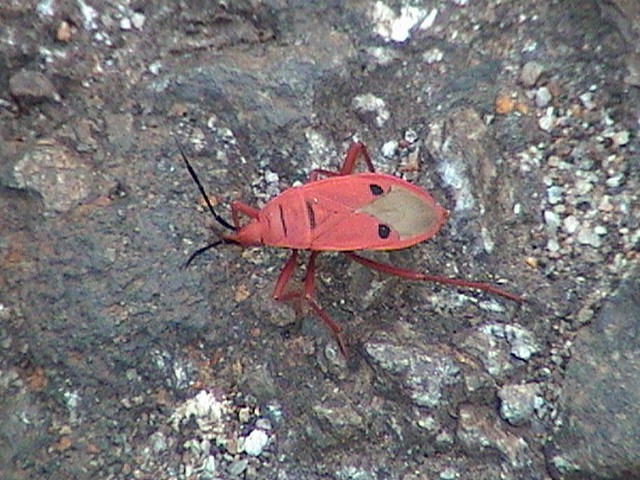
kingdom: Animalia
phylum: Arthropoda
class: Insecta
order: Hemiptera
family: Pyrrhocoridae
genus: Probergrothius
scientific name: Probergrothius nigricornis
